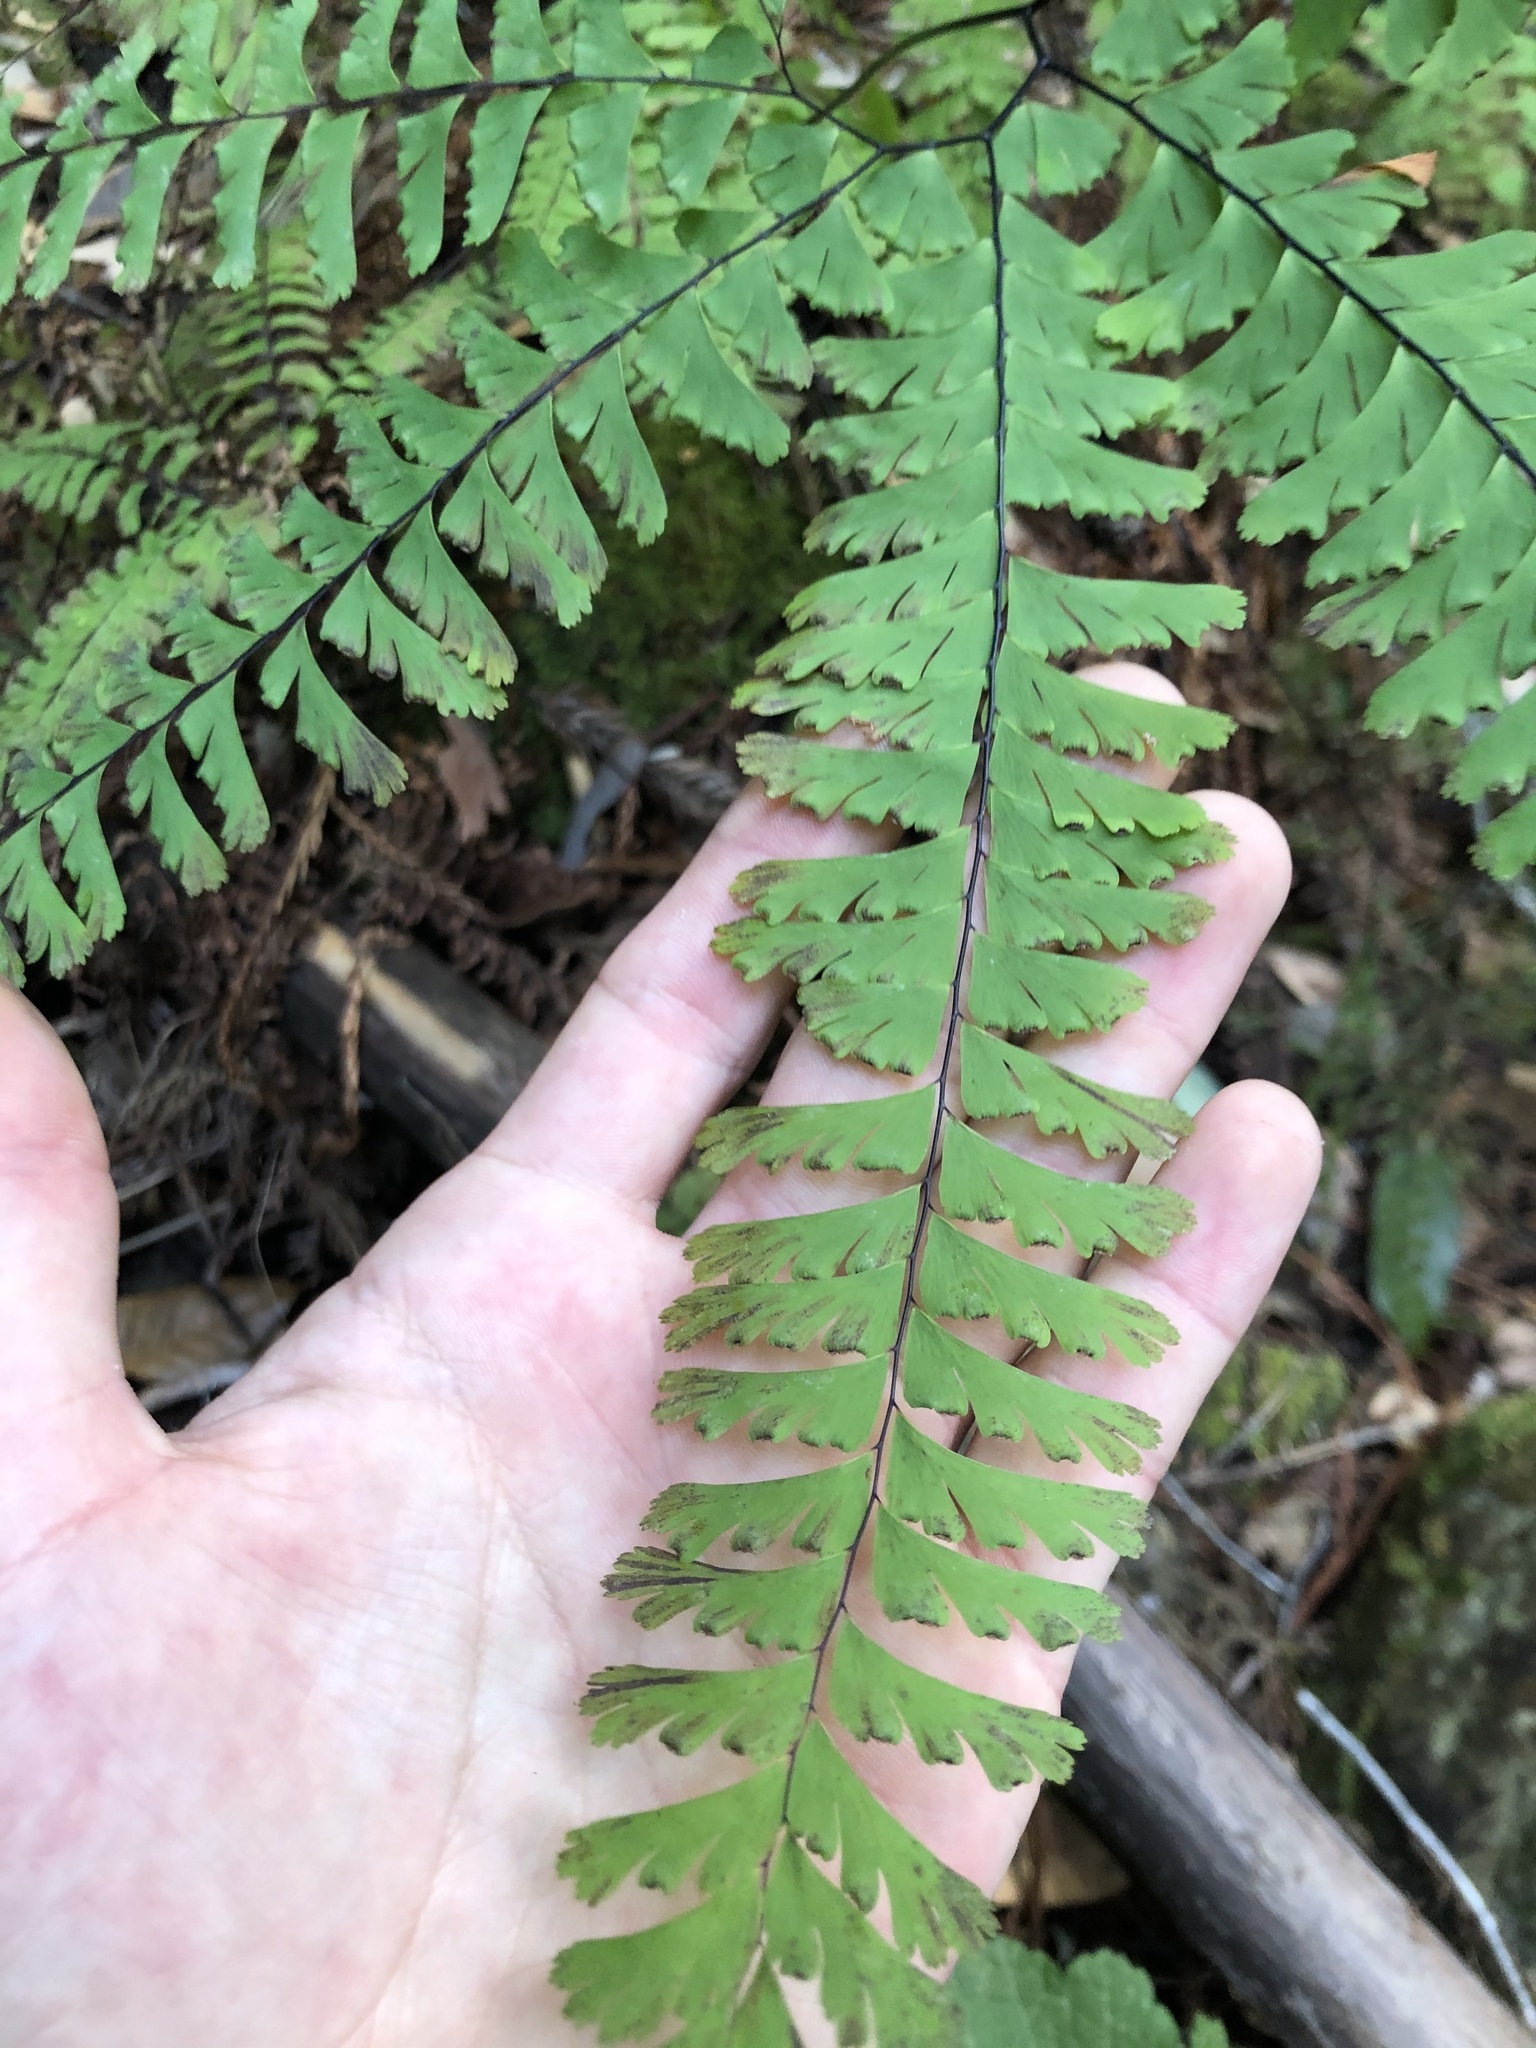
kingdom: Plantae
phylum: Tracheophyta
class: Polypodiopsida
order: Polypodiales
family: Pteridaceae
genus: Adiantum
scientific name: Adiantum aleuticum
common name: Aleutian maidenhair fern
